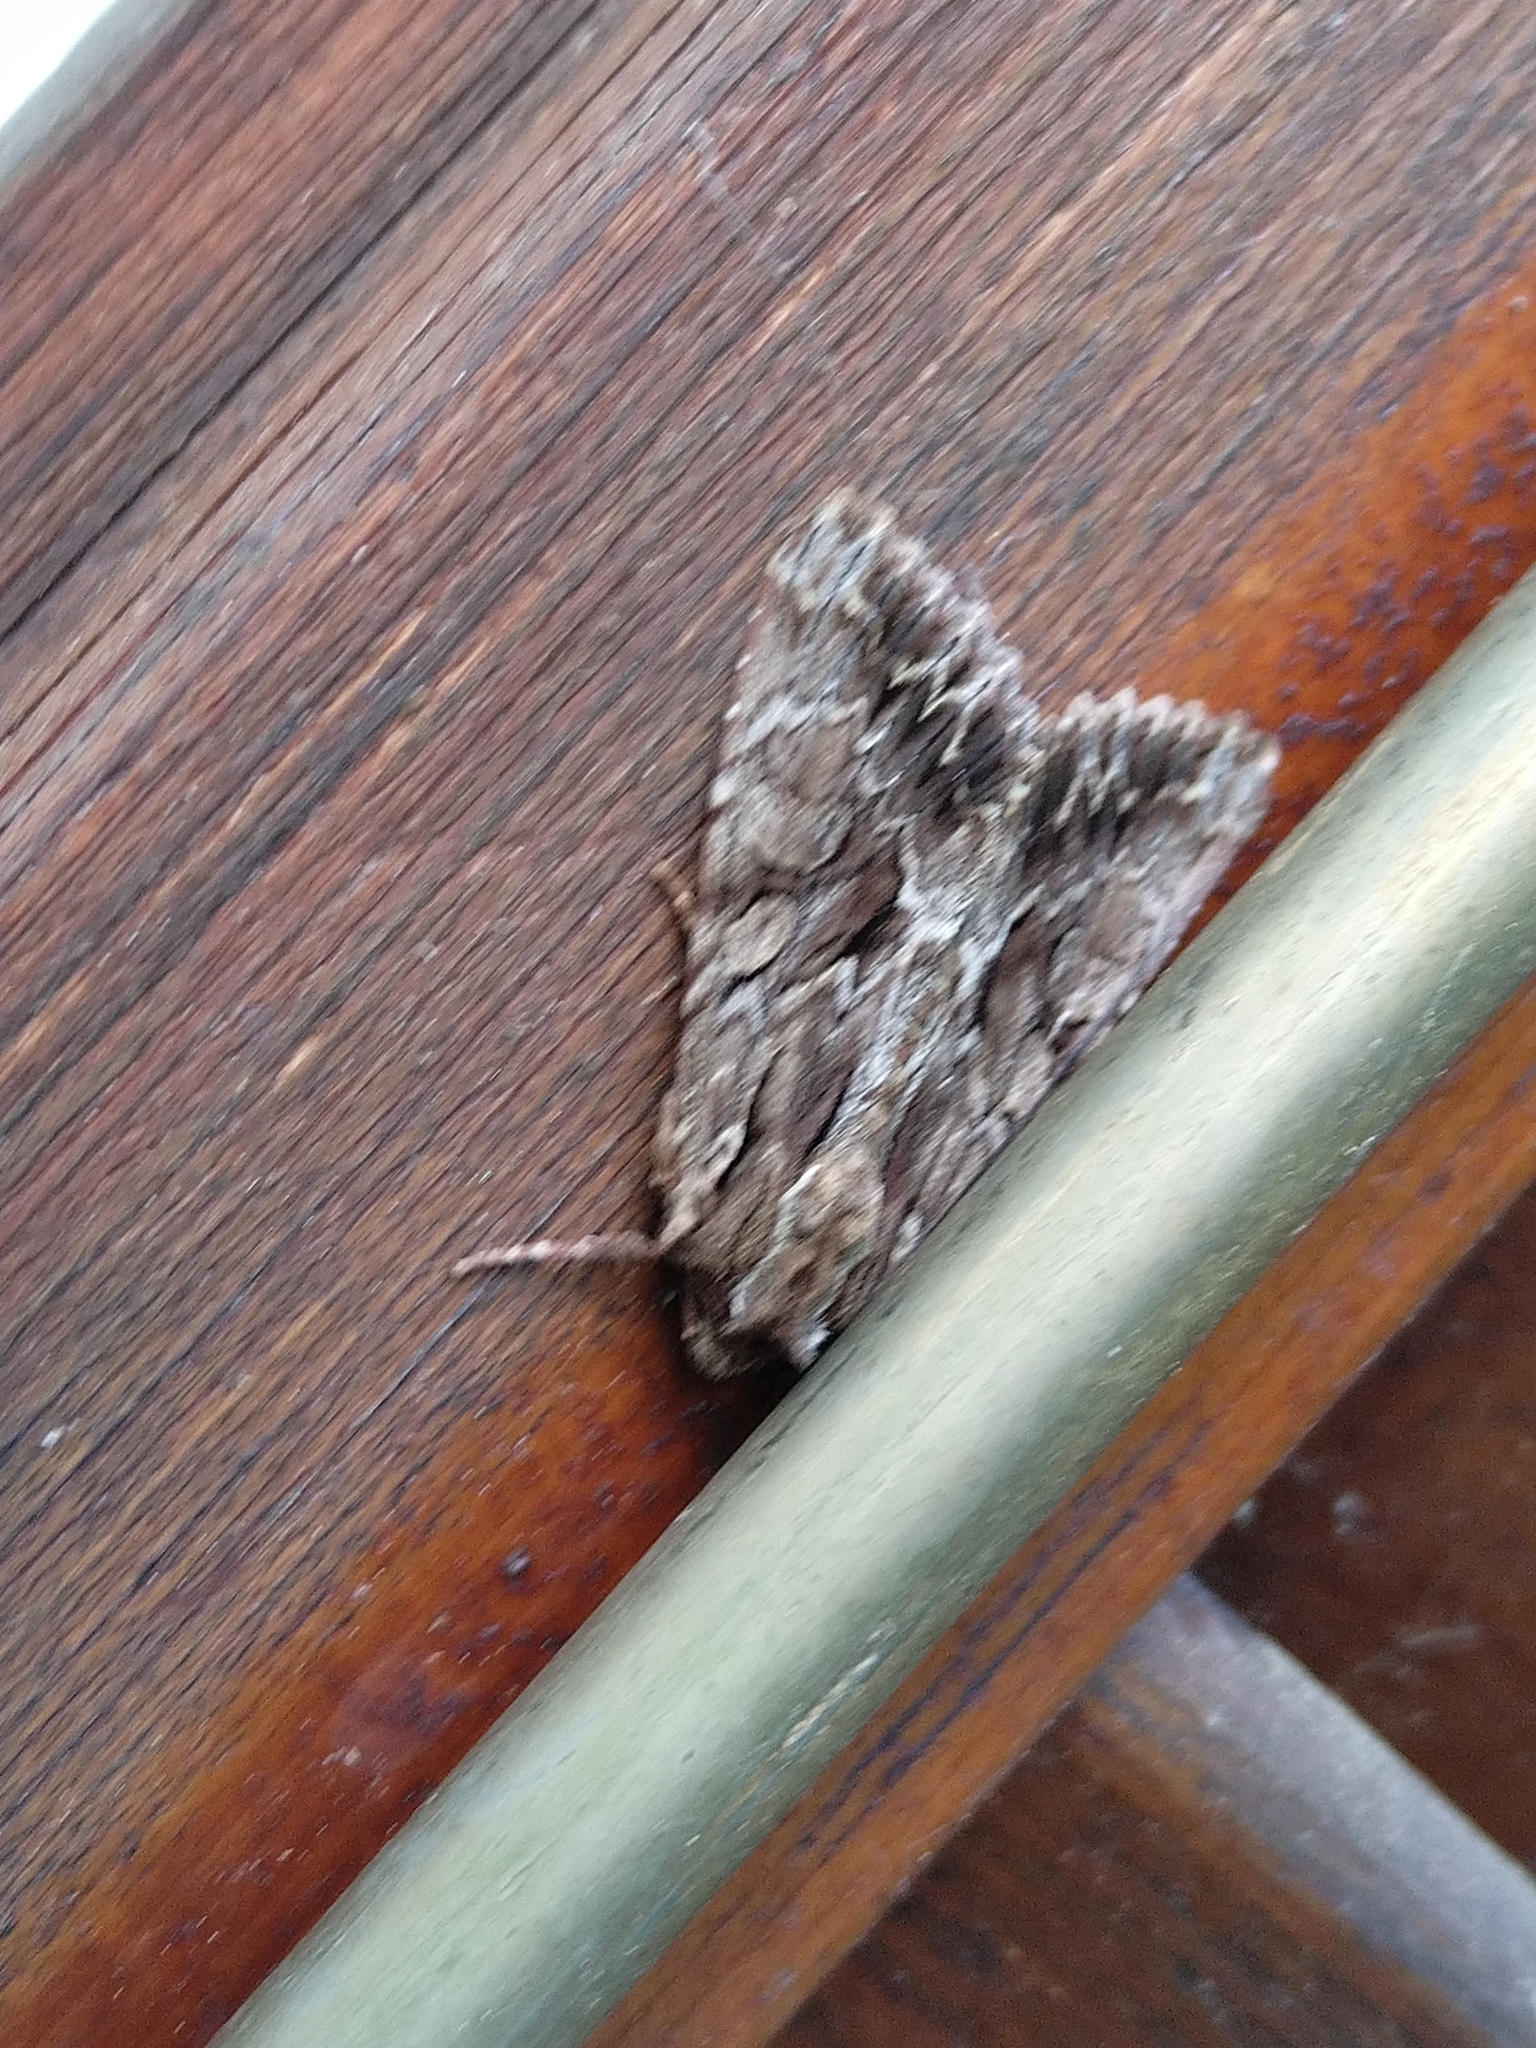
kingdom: Animalia
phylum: Arthropoda
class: Insecta
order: Lepidoptera
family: Noctuidae
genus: Apamea
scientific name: Apamea monoglypha
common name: Dark arches
